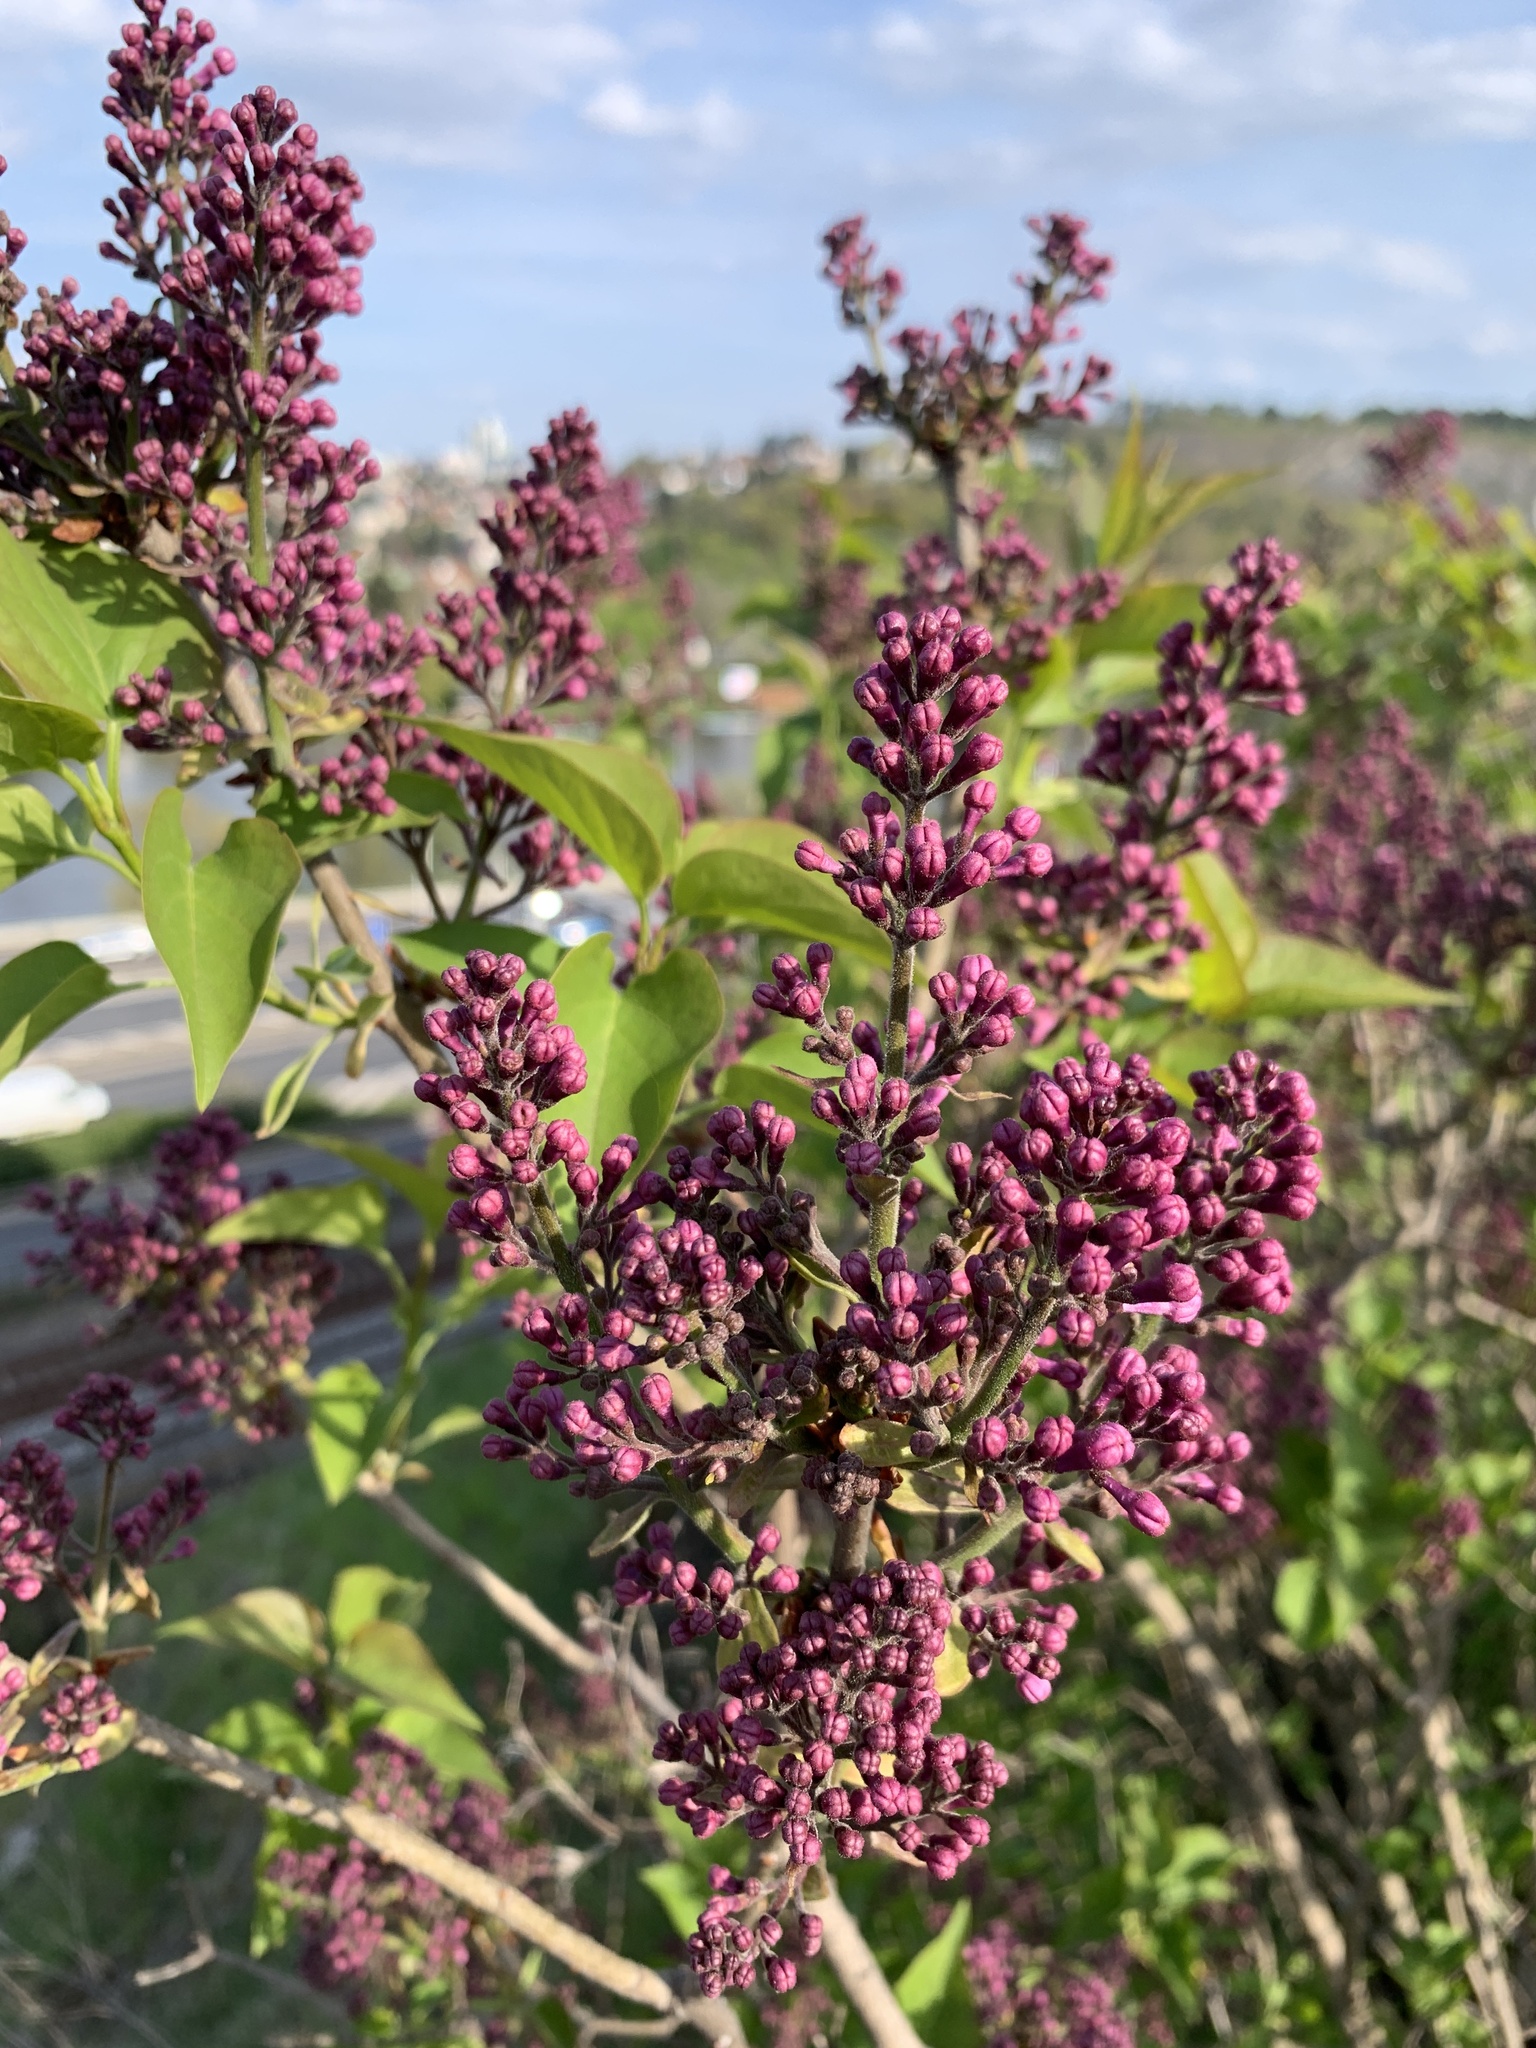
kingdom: Plantae
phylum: Tracheophyta
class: Magnoliopsida
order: Lamiales
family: Oleaceae
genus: Syringa
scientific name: Syringa vulgaris
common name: Common lilac
